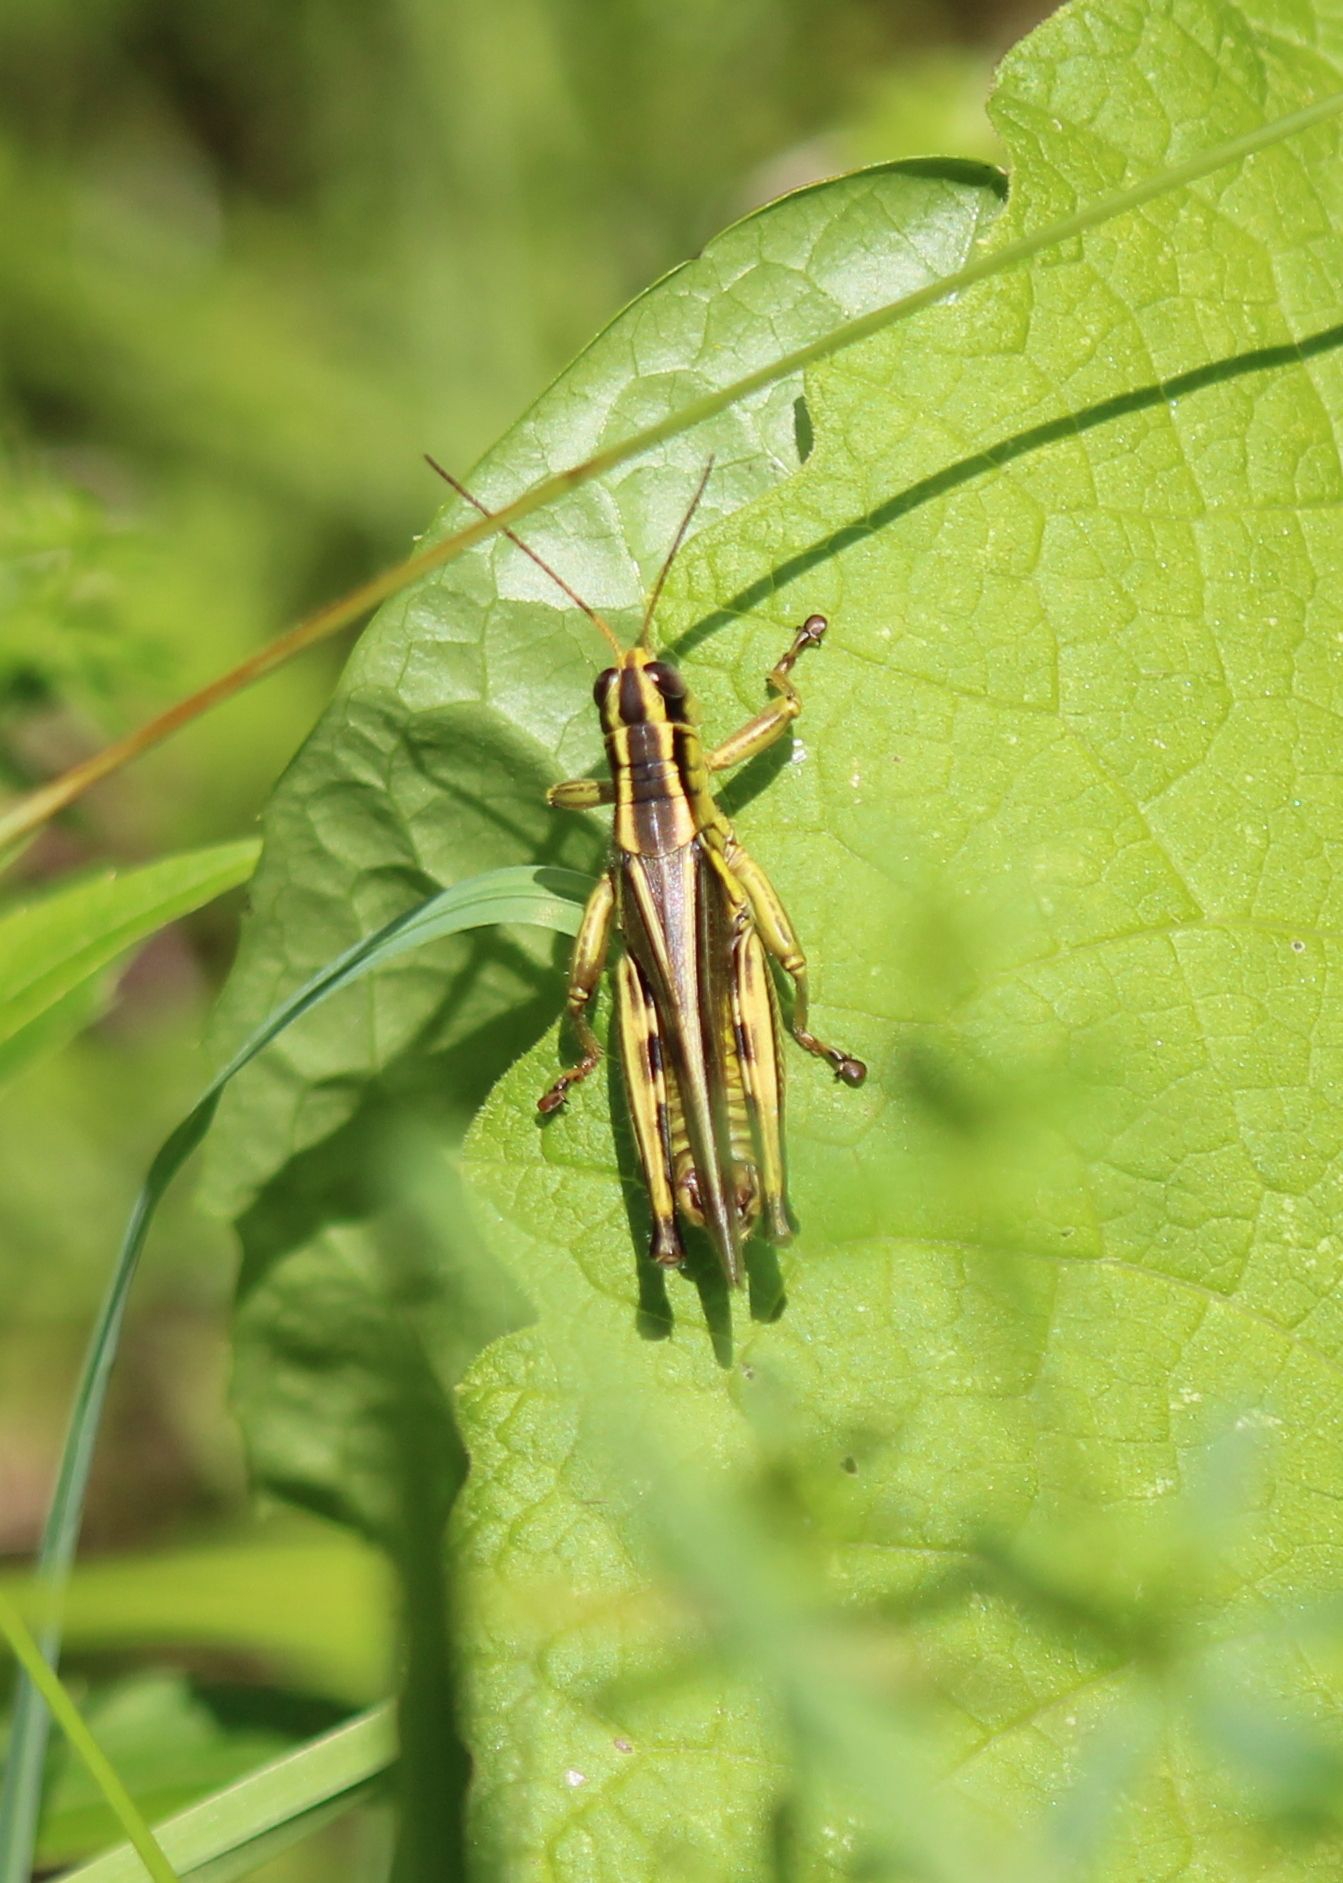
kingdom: Animalia
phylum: Arthropoda
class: Insecta
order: Orthoptera
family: Acrididae
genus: Melanoplus
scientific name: Melanoplus bivittatus
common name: Two-striped grasshopper
